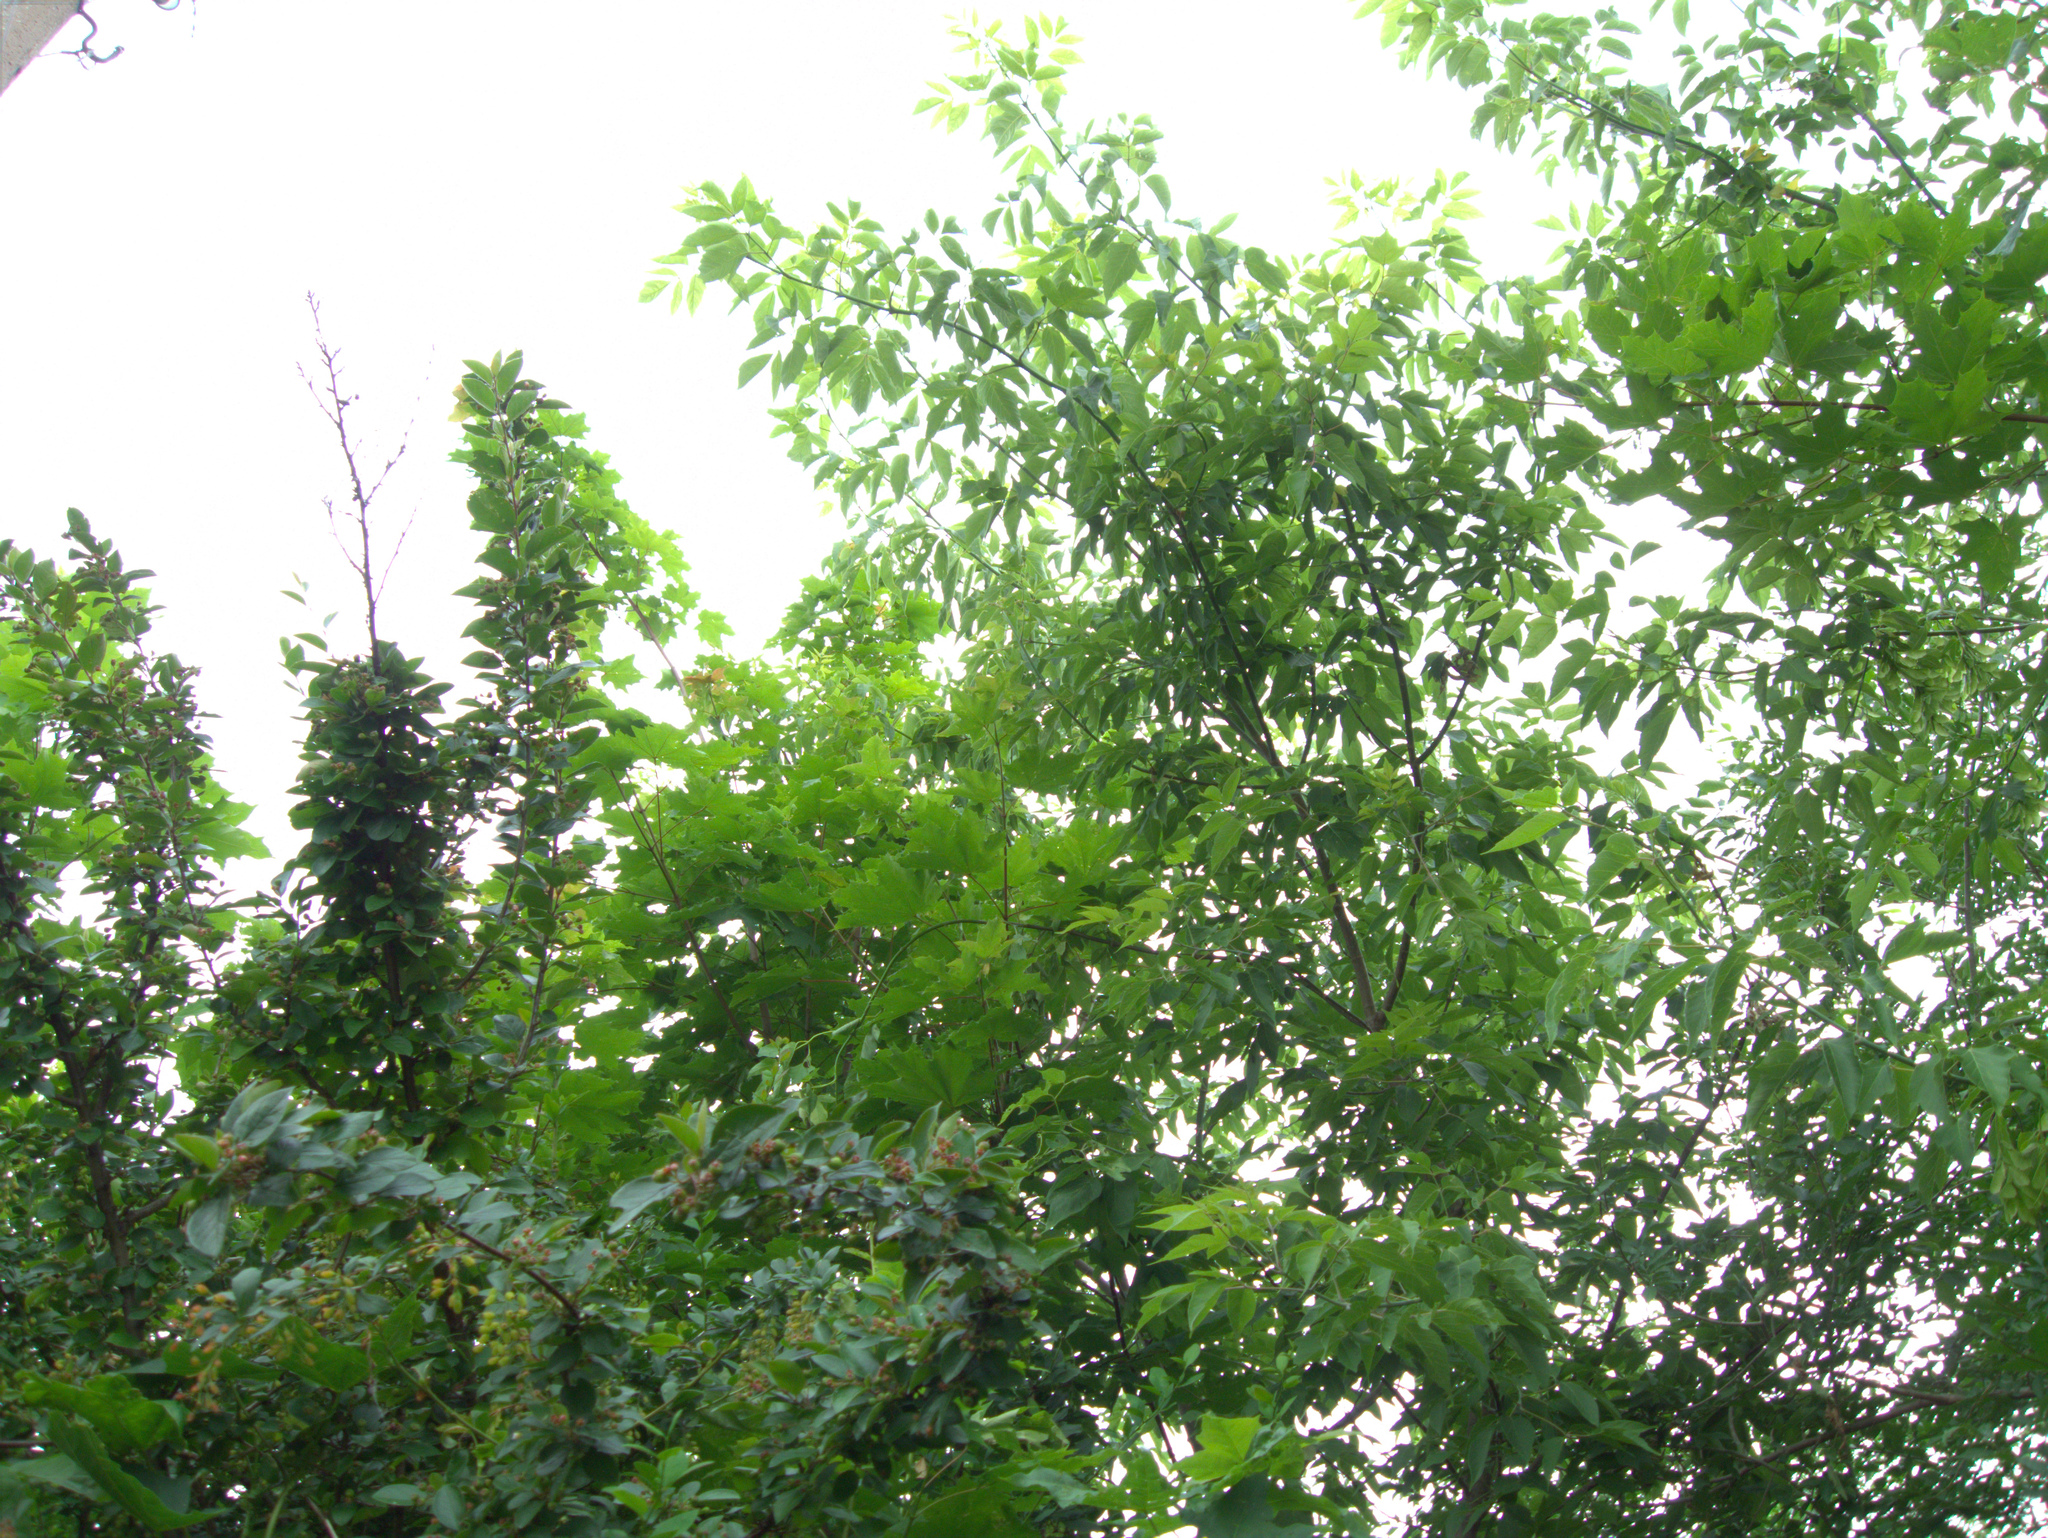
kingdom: Plantae
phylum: Tracheophyta
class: Magnoliopsida
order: Sapindales
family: Sapindaceae
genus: Acer
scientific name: Acer negundo
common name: Ashleaf maple
